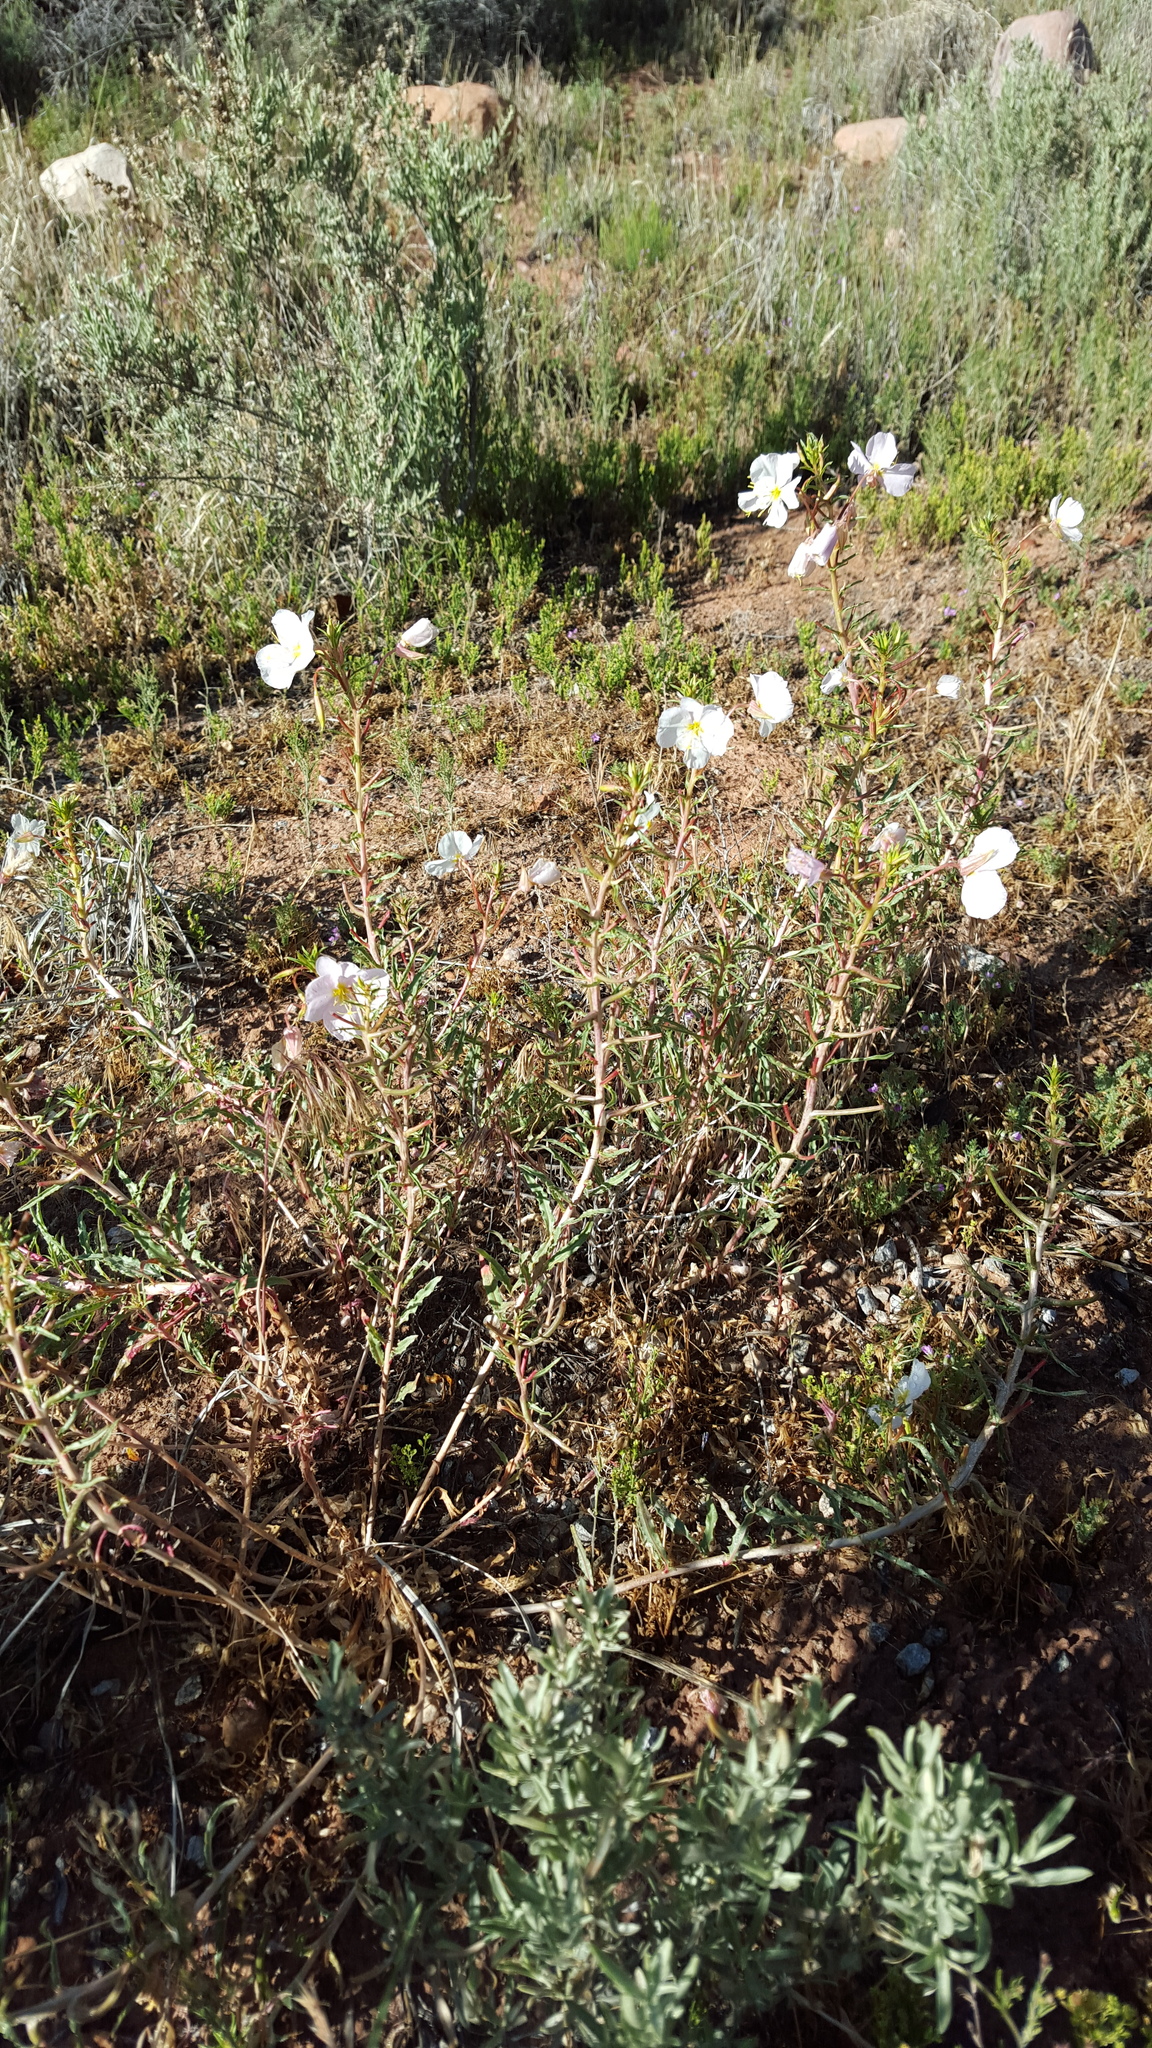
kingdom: Plantae
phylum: Tracheophyta
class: Magnoliopsida
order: Myrtales
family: Onagraceae
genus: Oenothera
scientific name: Oenothera pallida
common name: Pale evening-primrose
